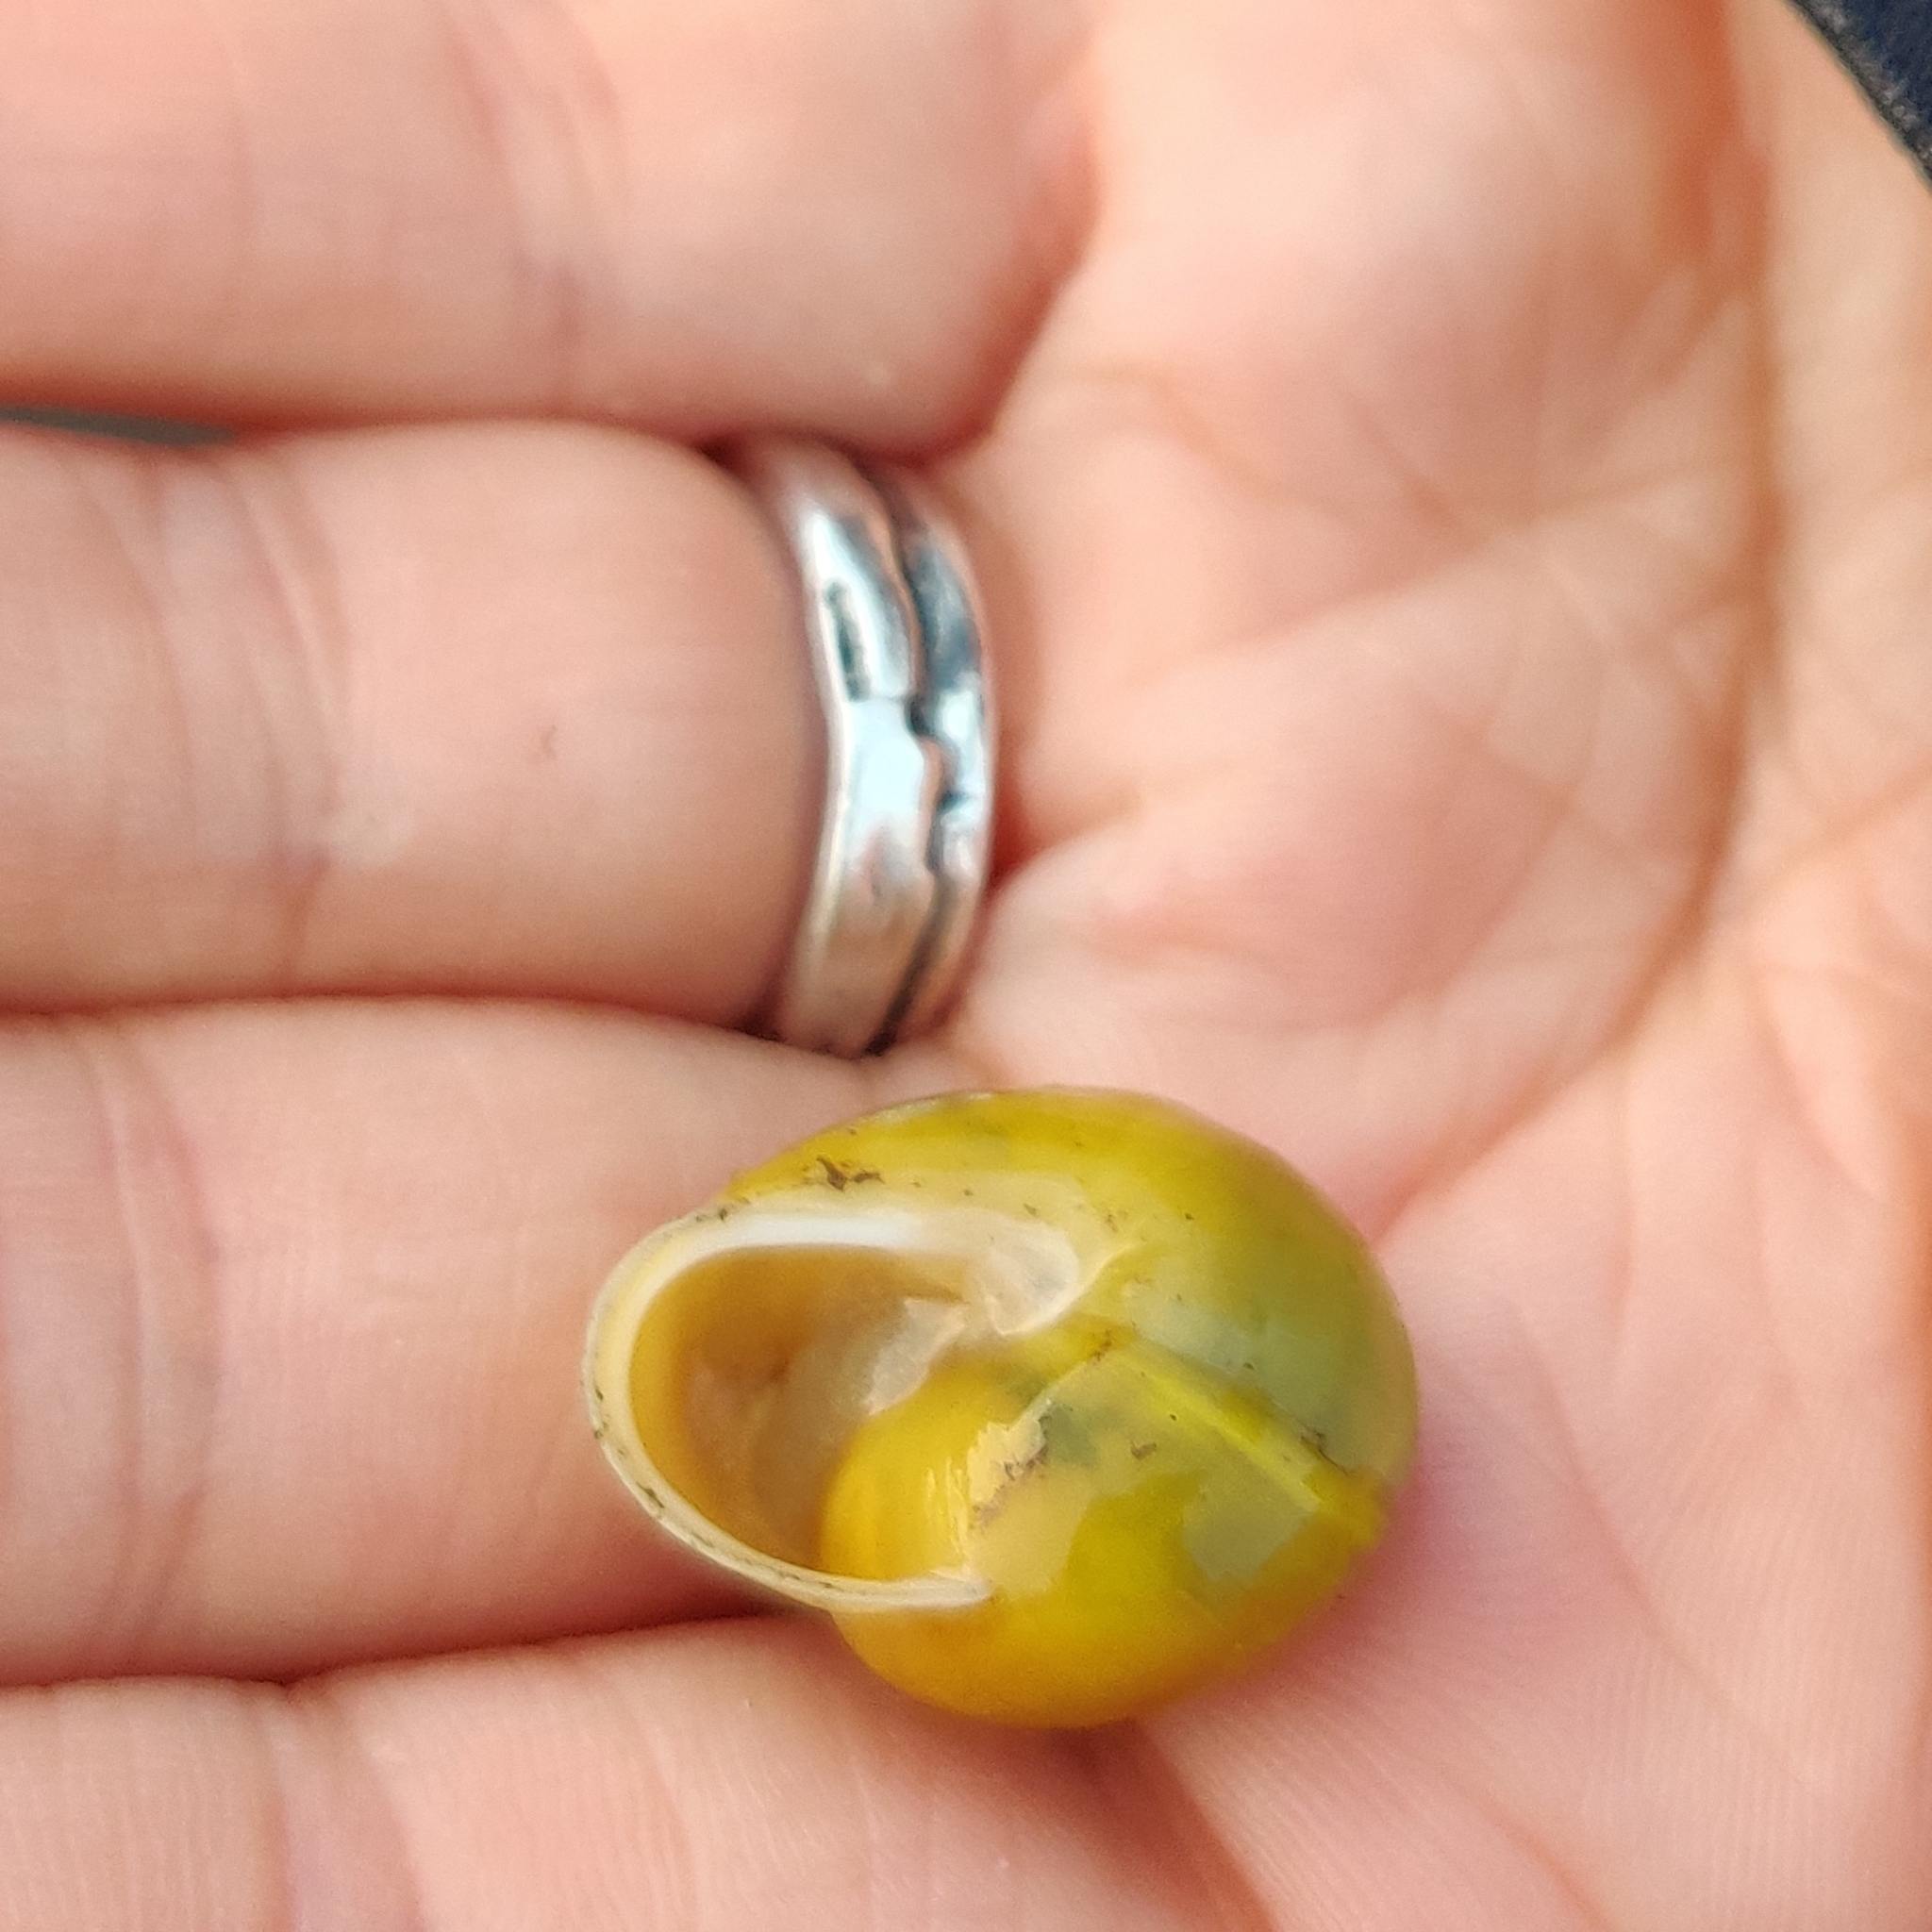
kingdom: Animalia
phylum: Mollusca
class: Gastropoda
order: Stylommatophora
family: Helicidae
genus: Cepaea
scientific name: Cepaea hortensis
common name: White-lip gardensnail
